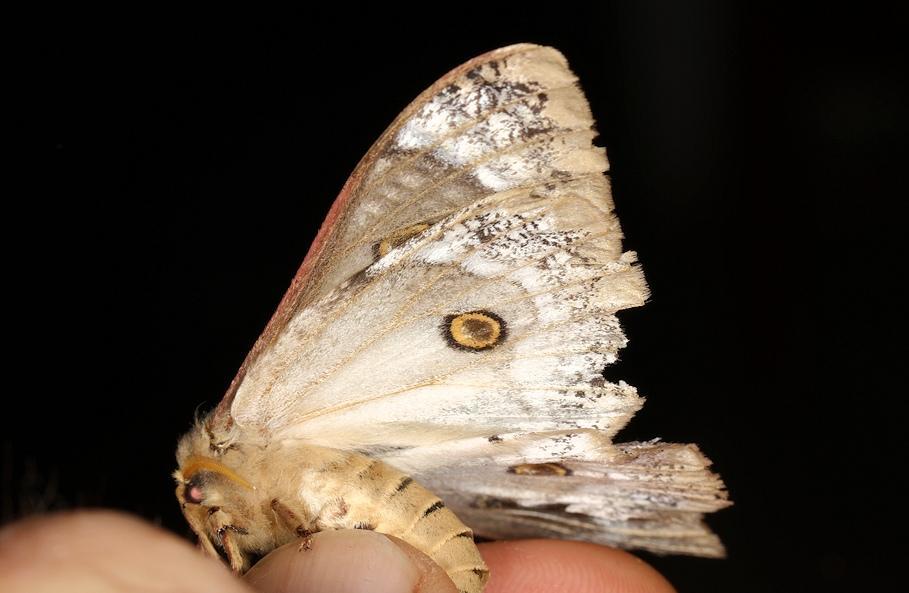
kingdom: Animalia
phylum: Arthropoda
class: Insecta
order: Lepidoptera
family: Saturniidae
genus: Usta
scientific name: Usta terpsichore
